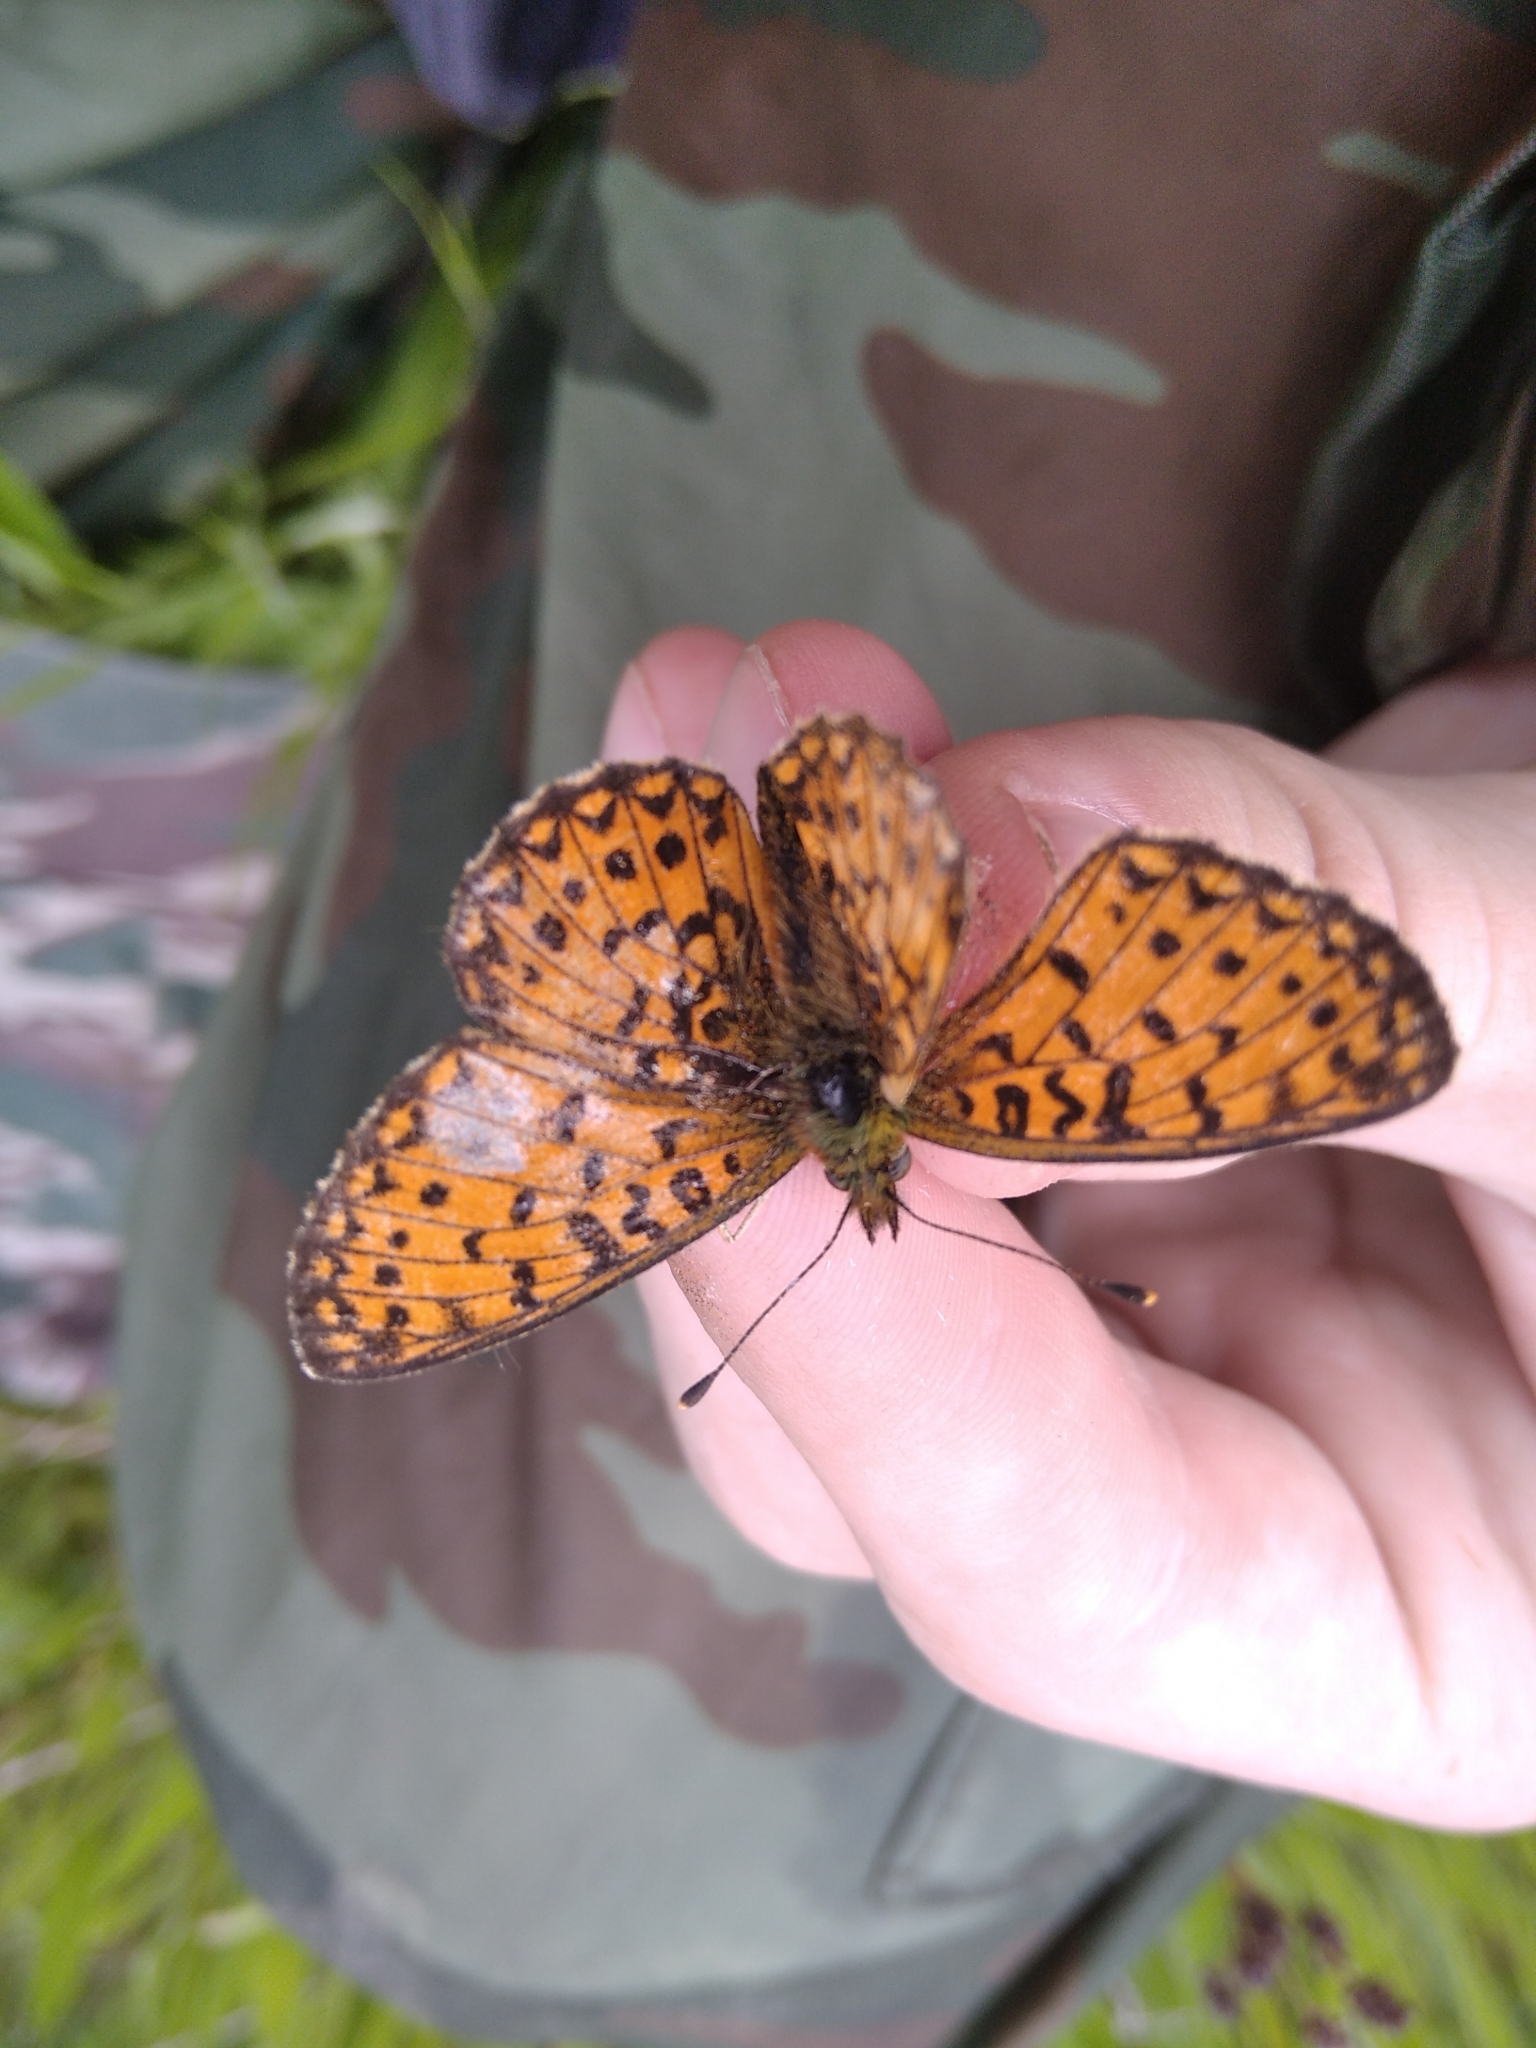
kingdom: Animalia
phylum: Arthropoda
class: Insecta
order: Lepidoptera
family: Nymphalidae
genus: Boloria
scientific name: Boloria selene
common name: Small pearl-bordered fritillary
